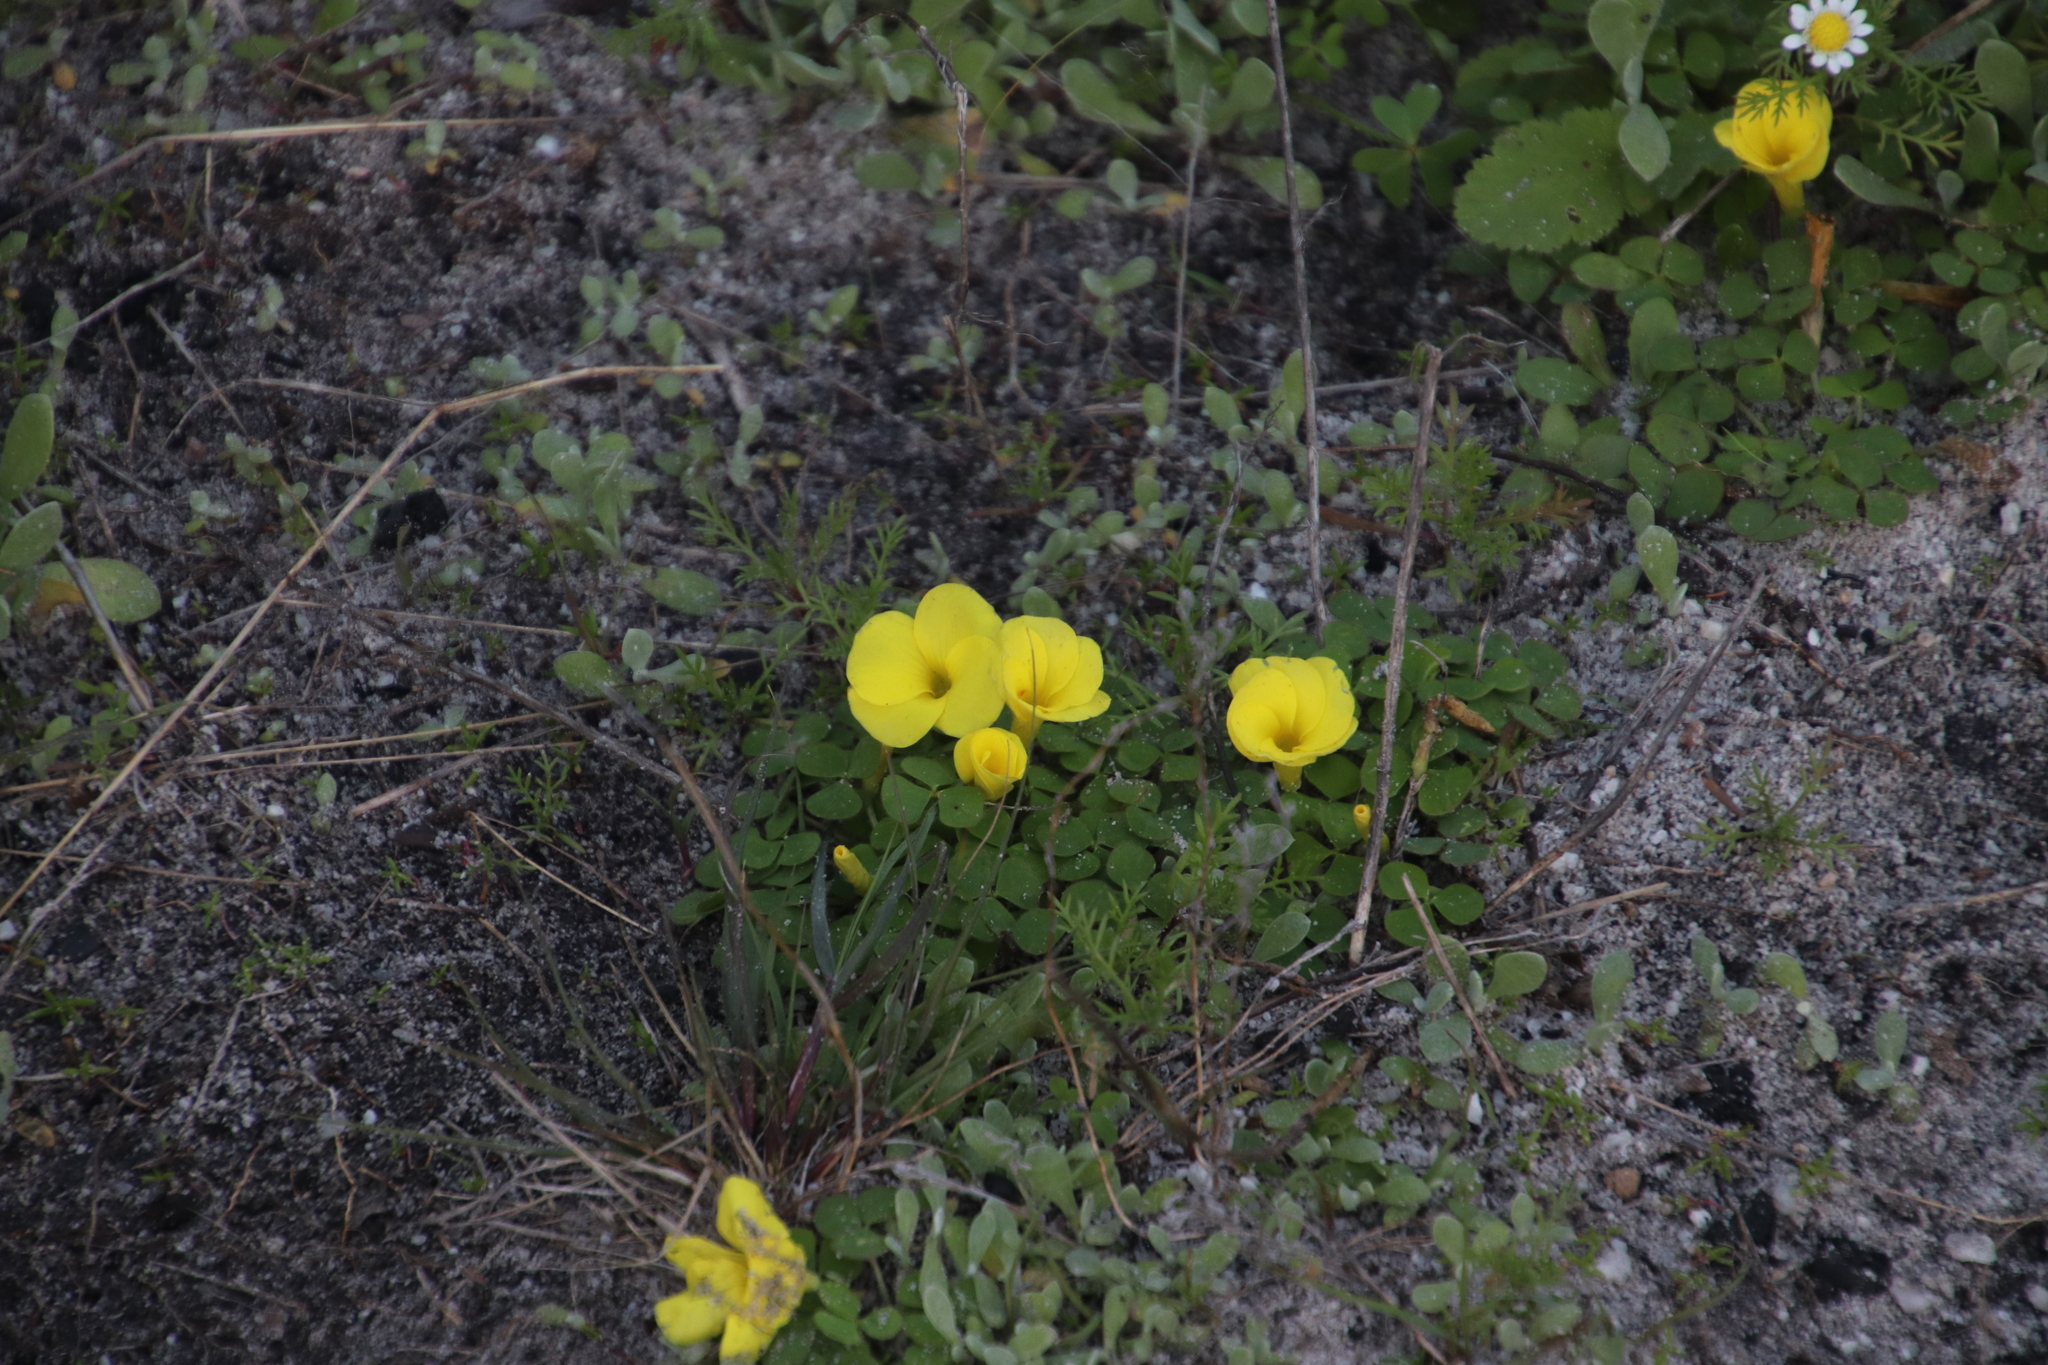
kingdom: Plantae
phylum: Tracheophyta
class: Magnoliopsida
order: Oxalidales
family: Oxalidaceae
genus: Oxalis
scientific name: Oxalis luteola
